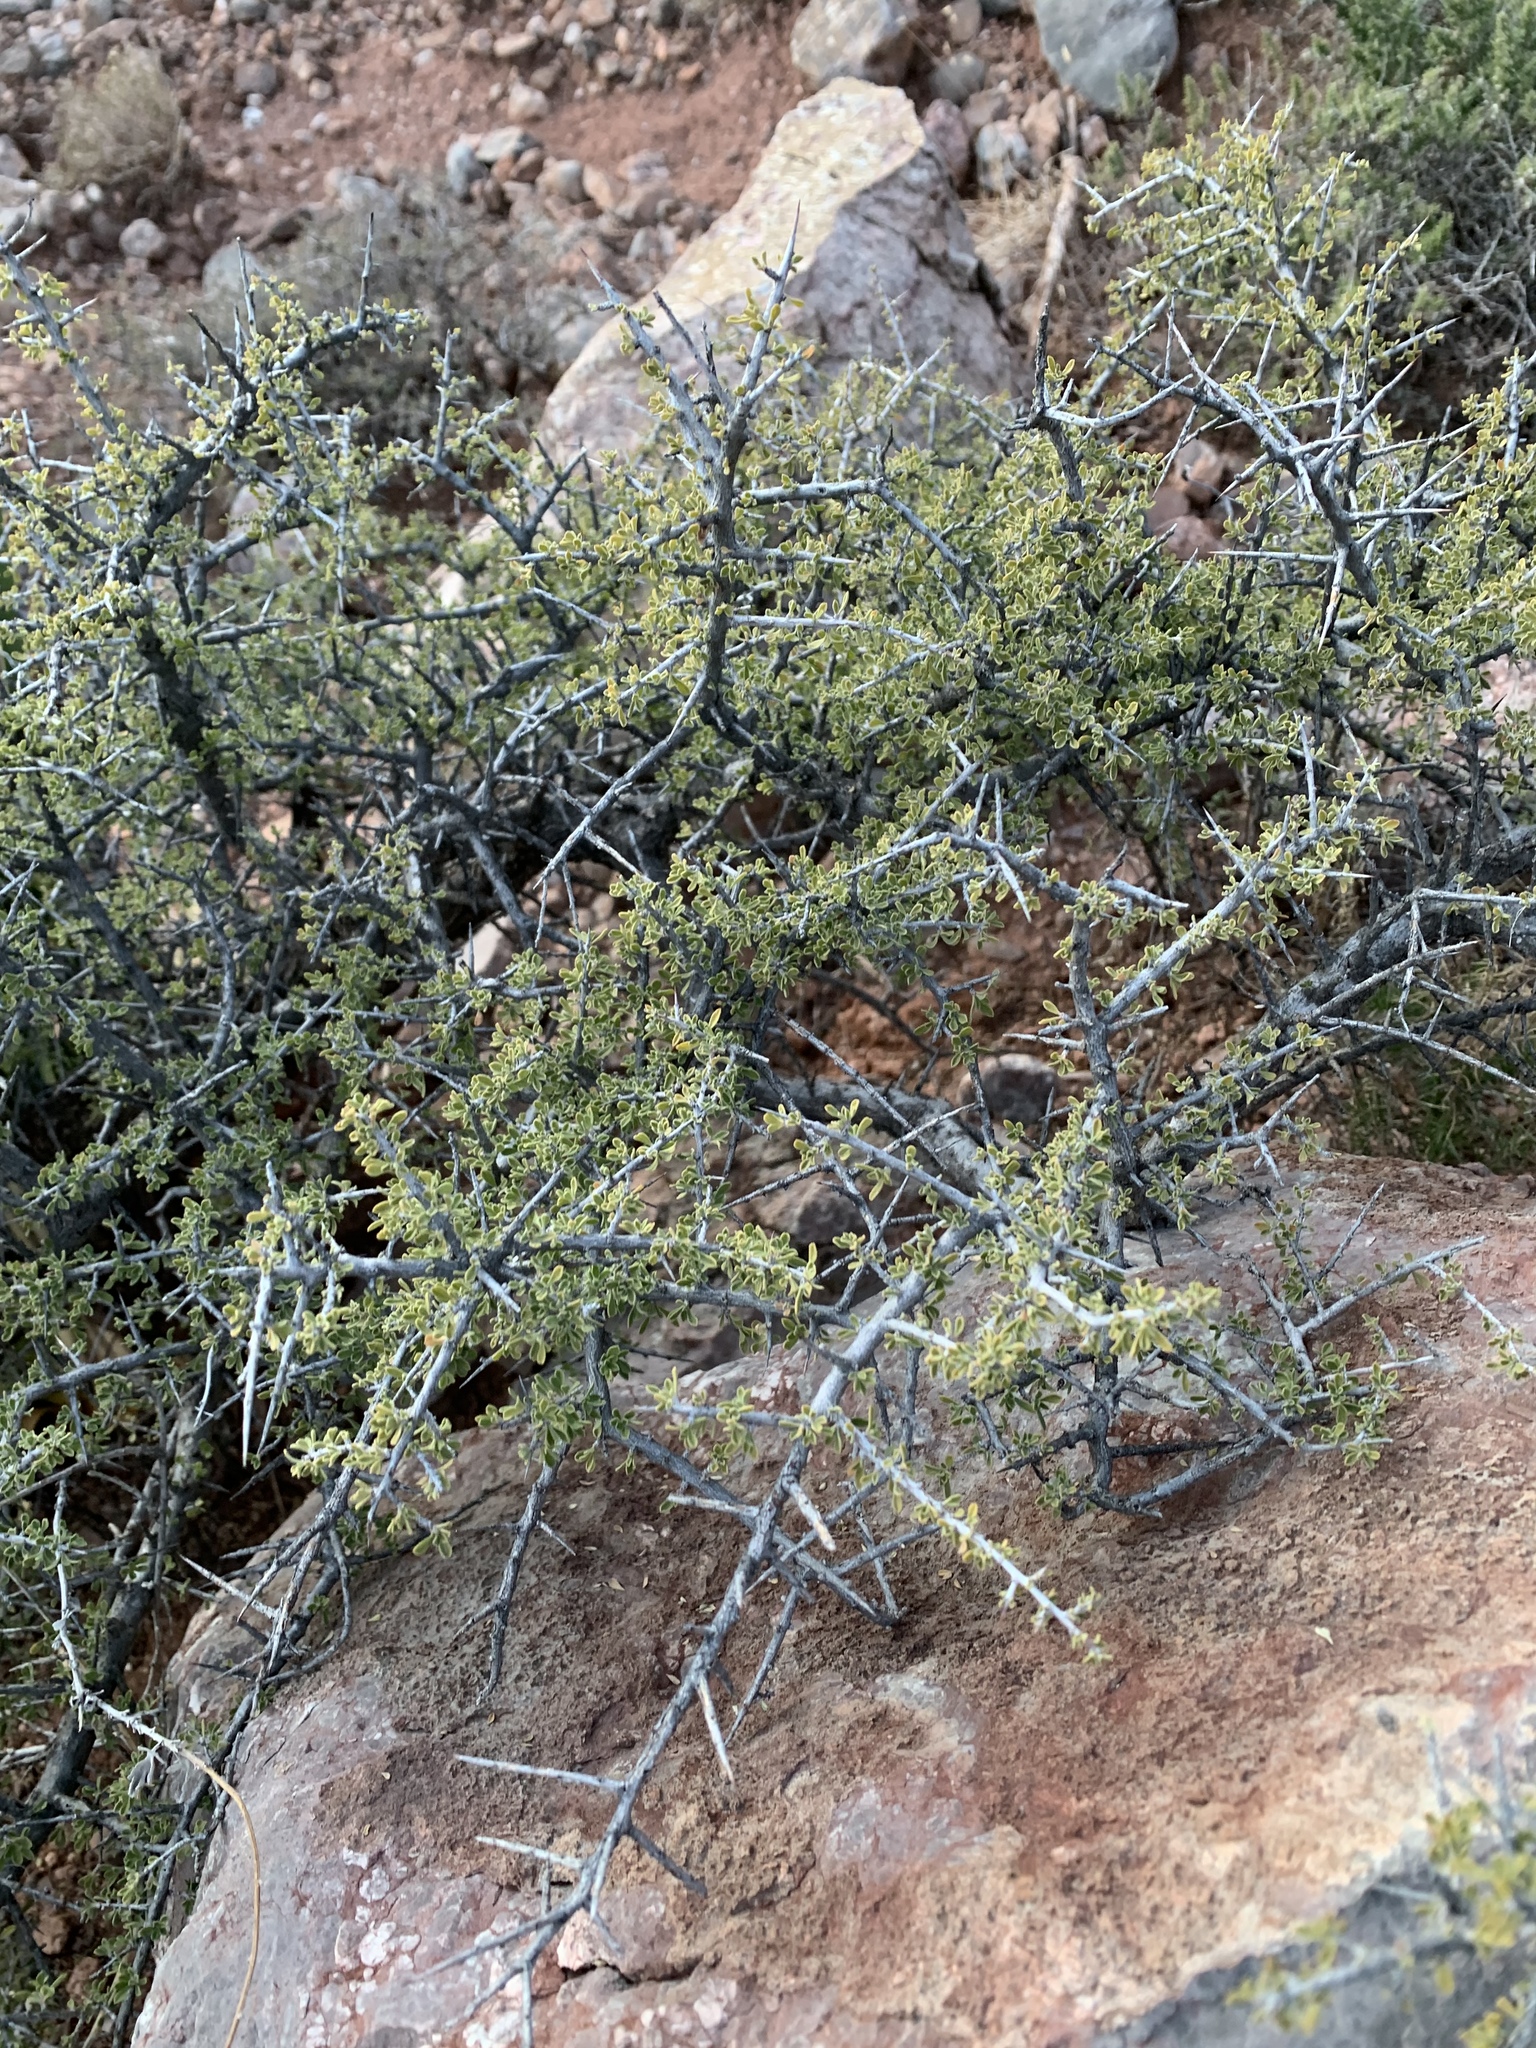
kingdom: Plantae
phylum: Tracheophyta
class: Magnoliopsida
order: Rosales
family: Rhamnaceae
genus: Condalia
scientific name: Condalia warnockii
